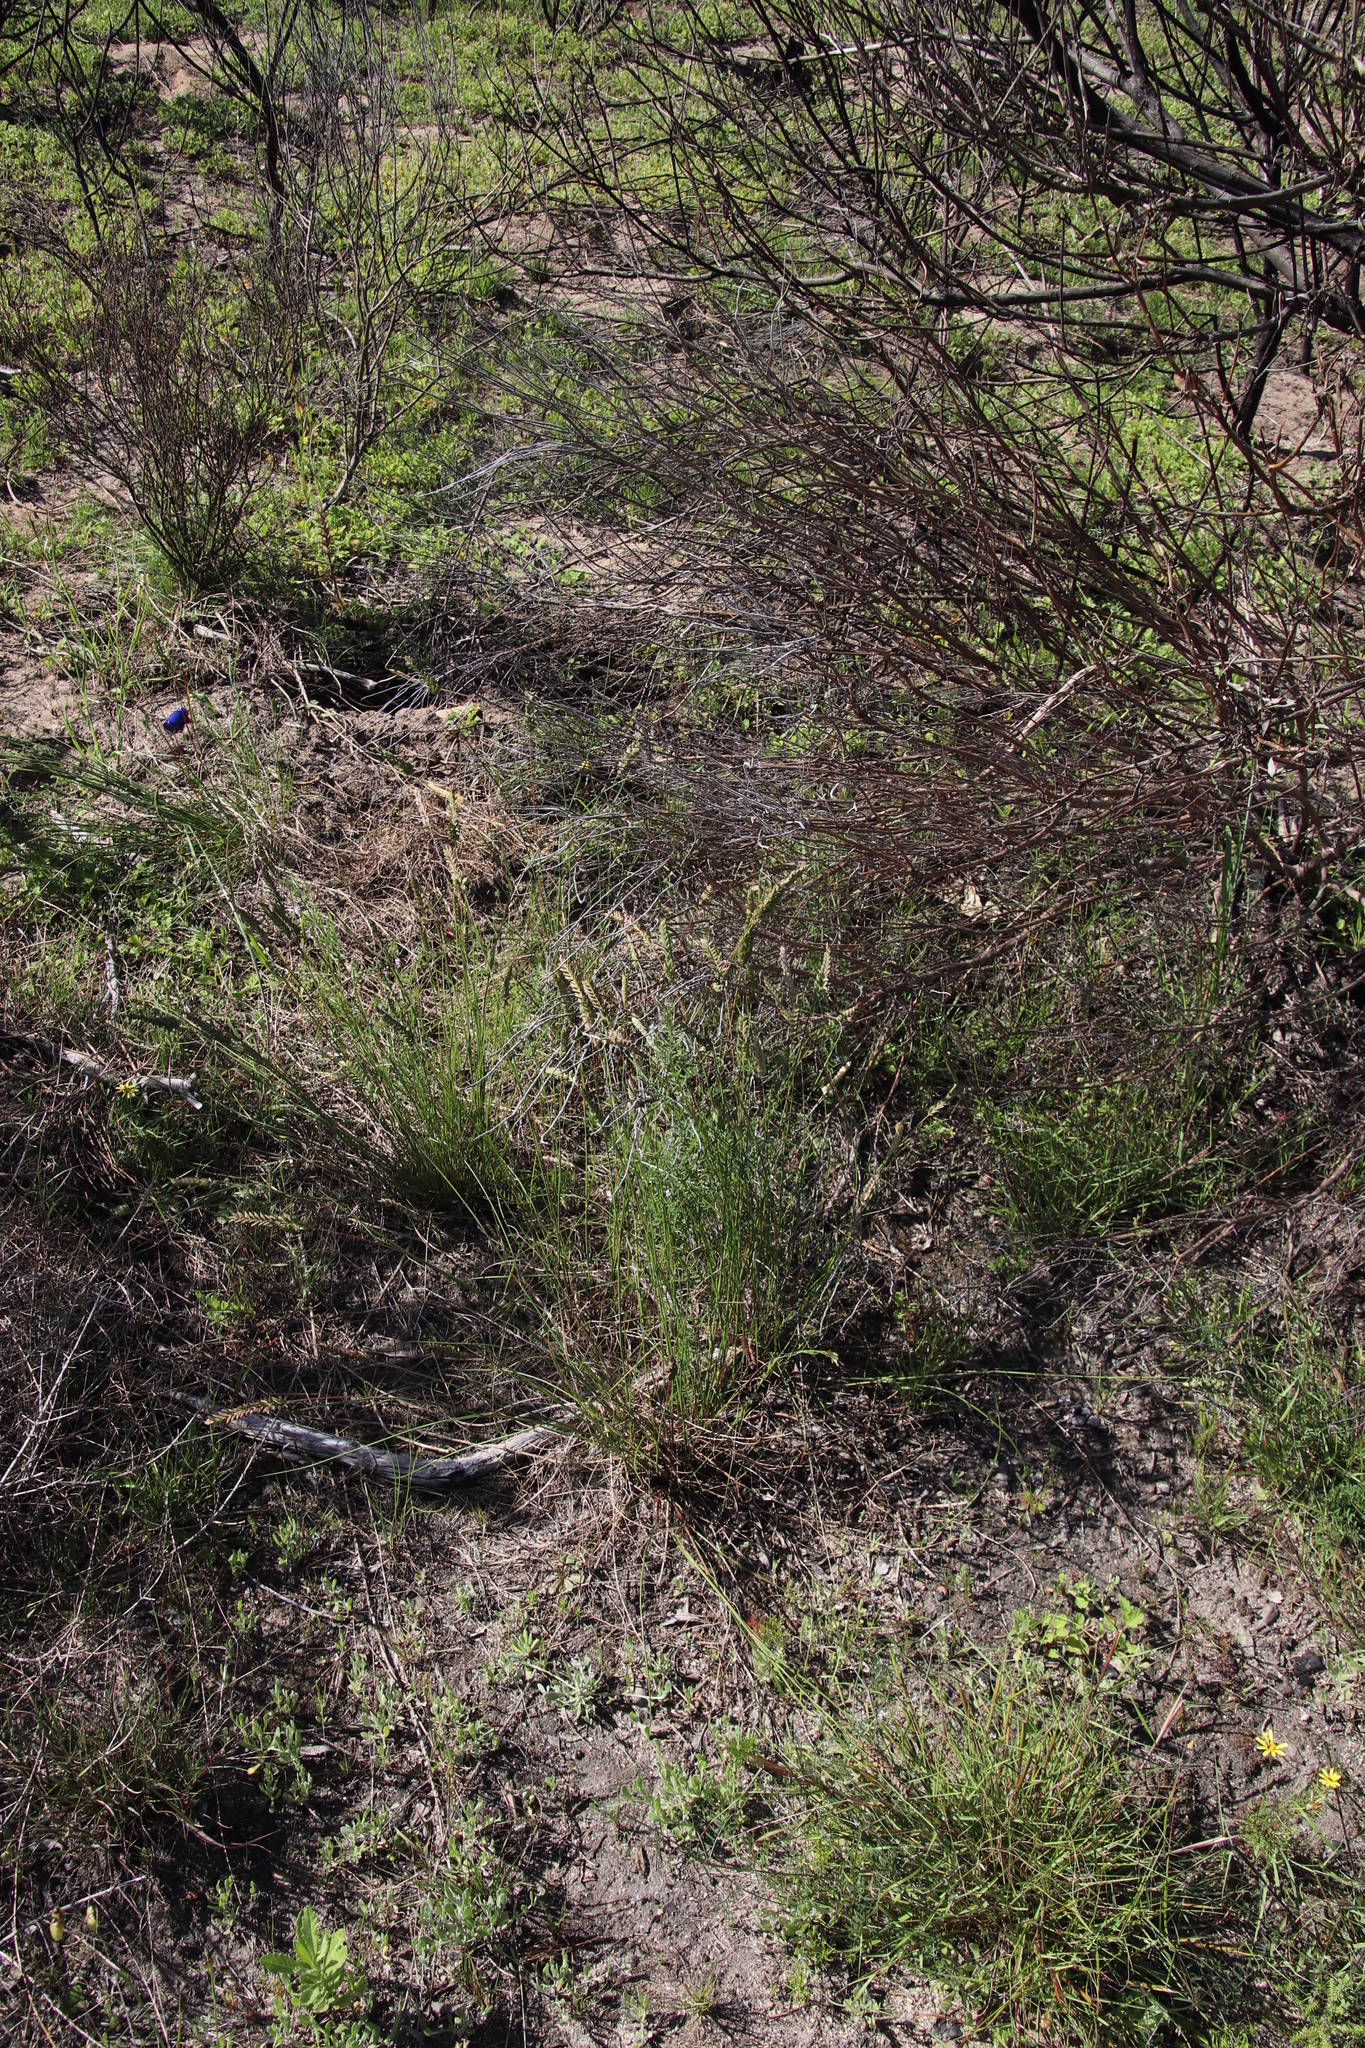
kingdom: Plantae
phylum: Tracheophyta
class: Liliopsida
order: Poales
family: Poaceae
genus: Tribolium
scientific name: Tribolium uniolae
